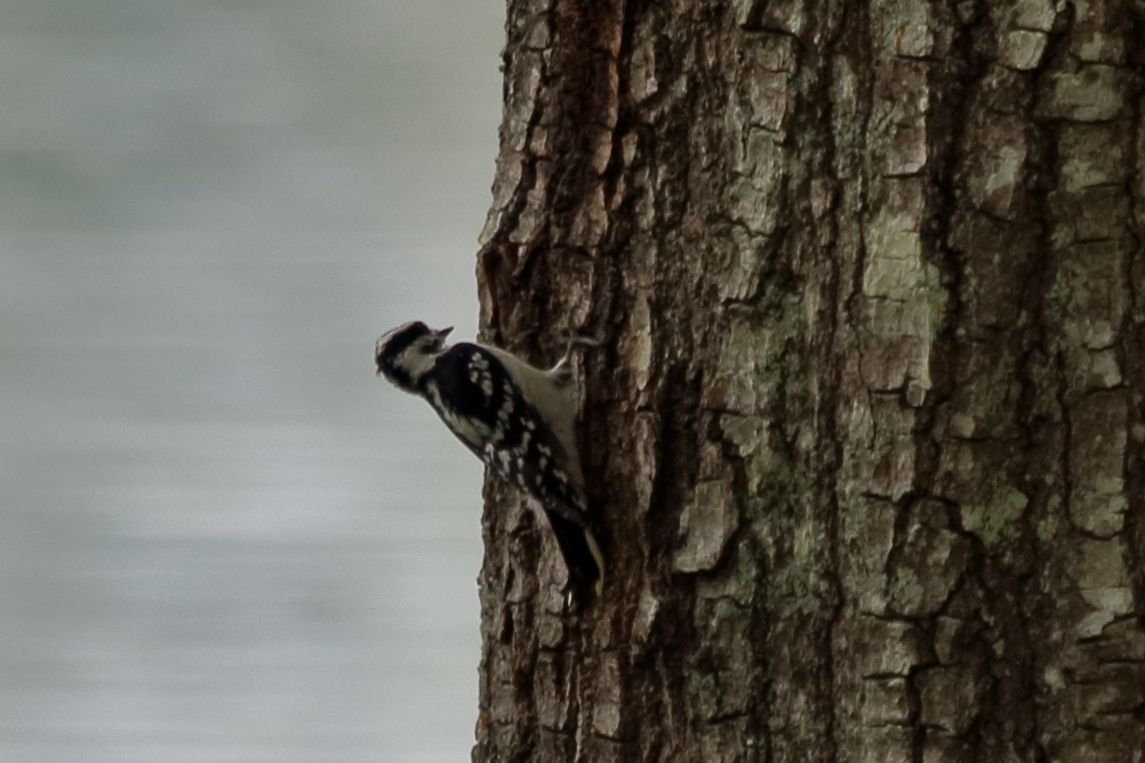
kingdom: Animalia
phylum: Chordata
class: Aves
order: Piciformes
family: Picidae
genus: Dryobates
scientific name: Dryobates pubescens
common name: Downy woodpecker
